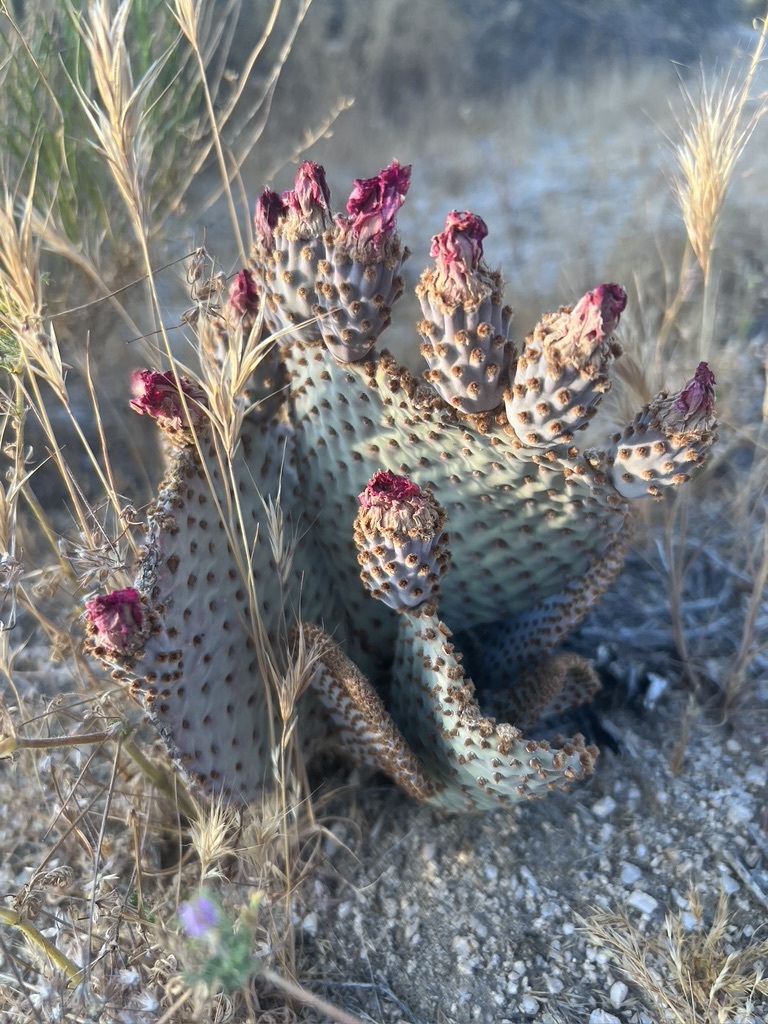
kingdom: Plantae
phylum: Tracheophyta
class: Magnoliopsida
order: Caryophyllales
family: Cactaceae
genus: Opuntia
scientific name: Opuntia basilaris
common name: Beavertail prickly-pear
